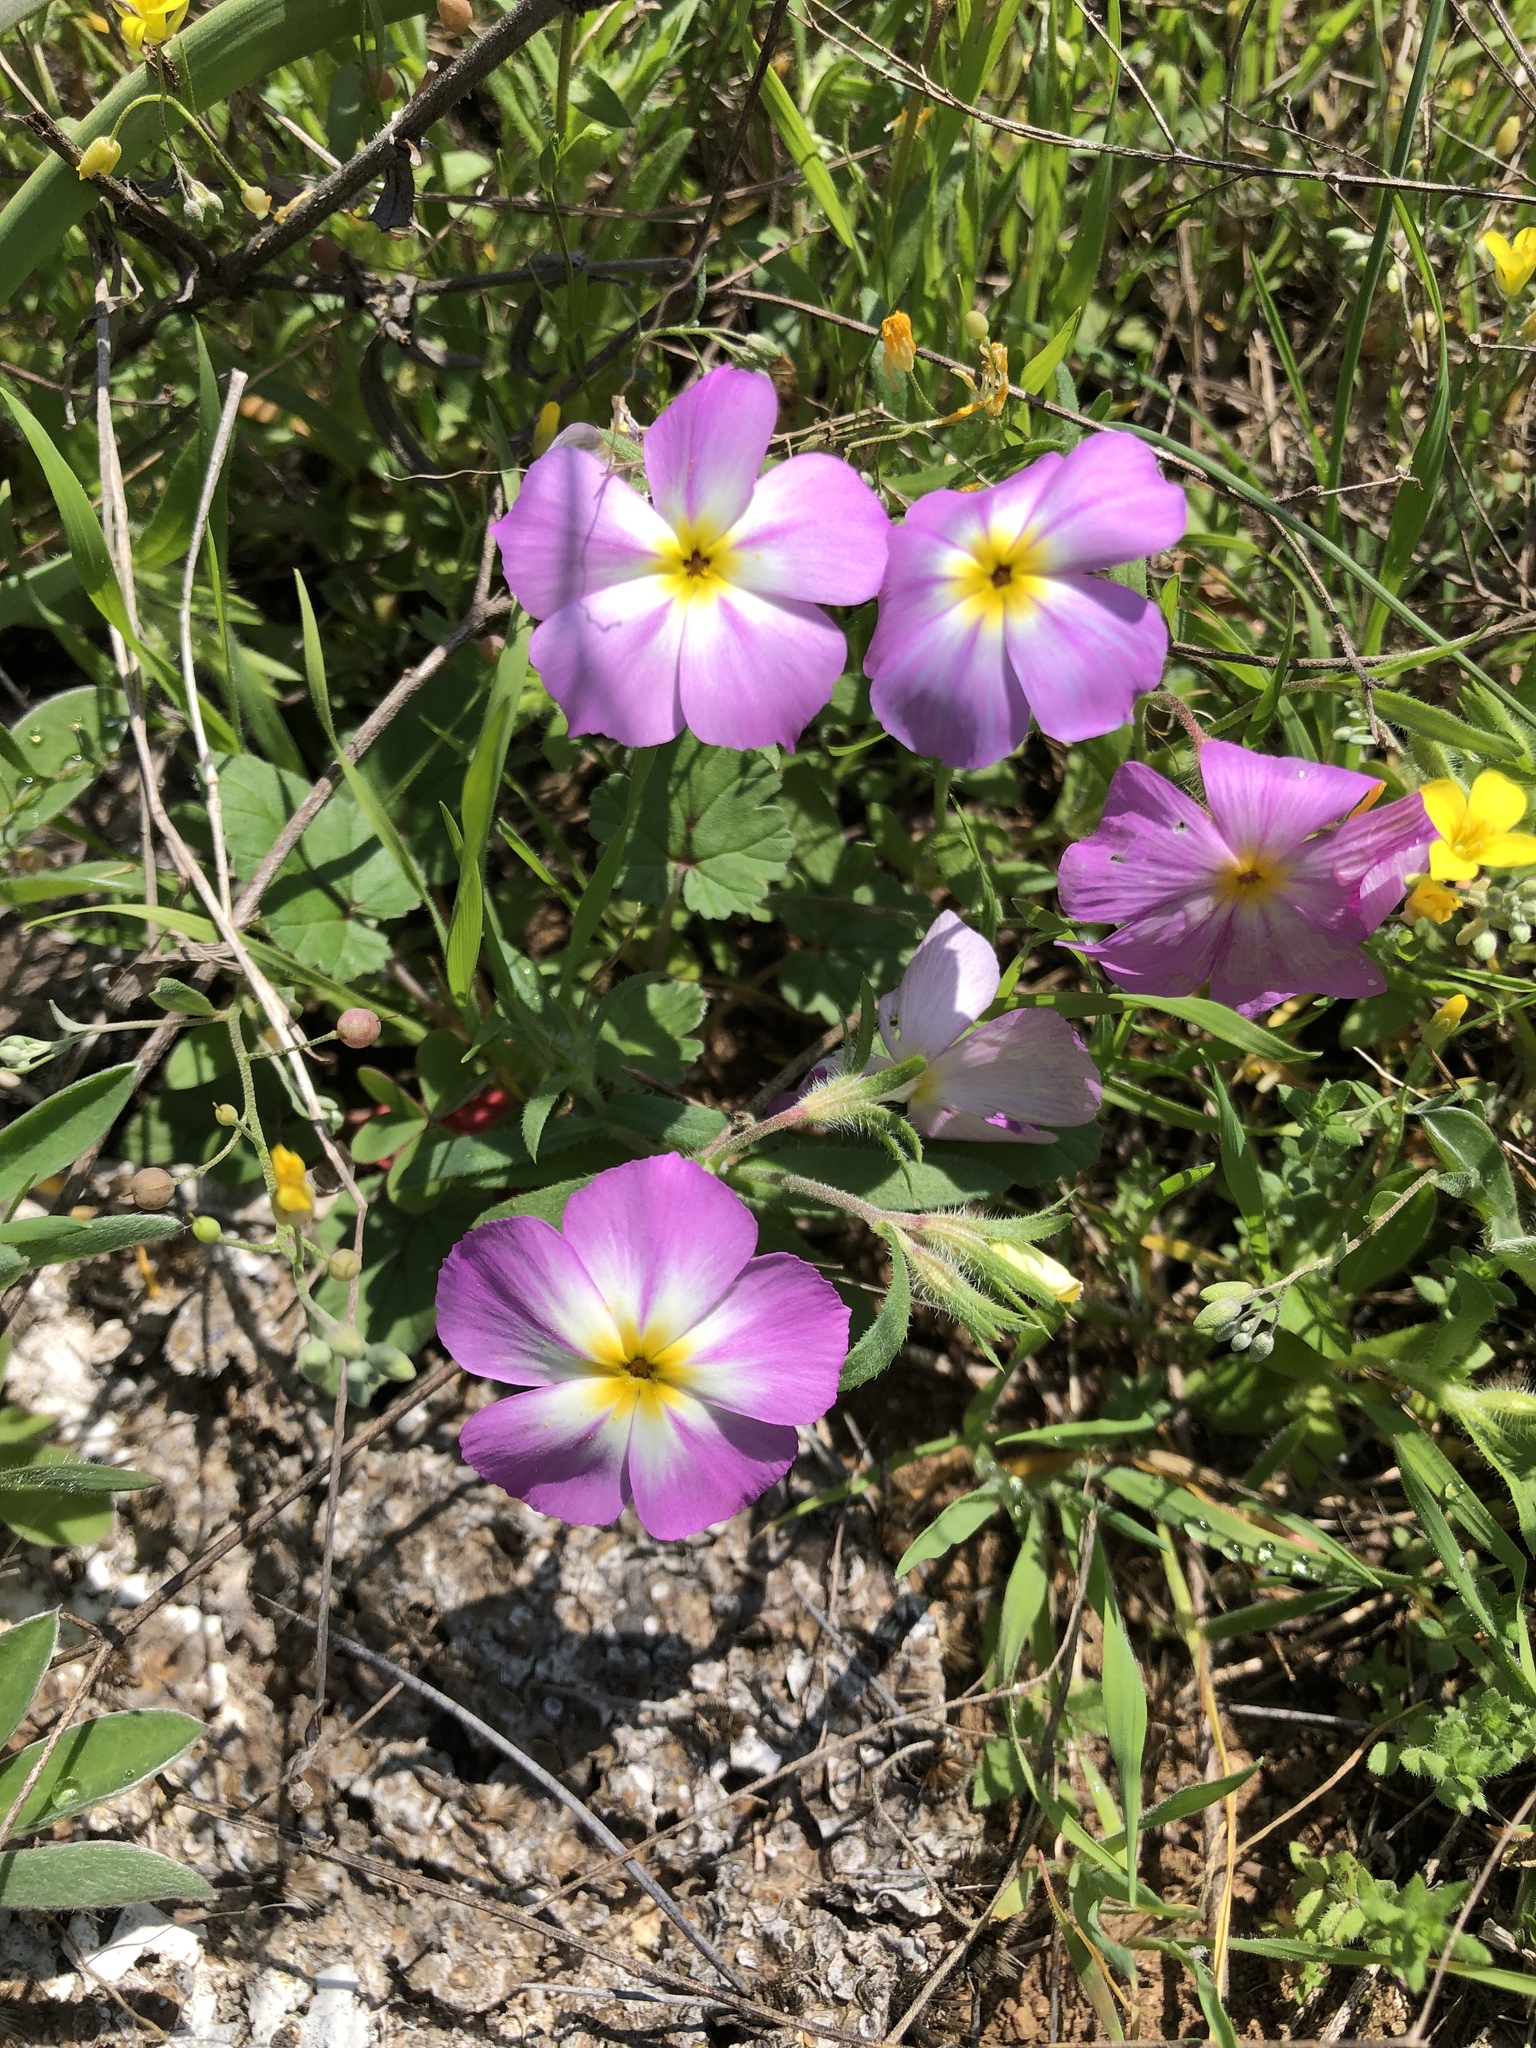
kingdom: Plantae
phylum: Tracheophyta
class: Magnoliopsida
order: Ericales
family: Polemoniaceae
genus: Phlox
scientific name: Phlox roemeriana
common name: Roemer's phlox
